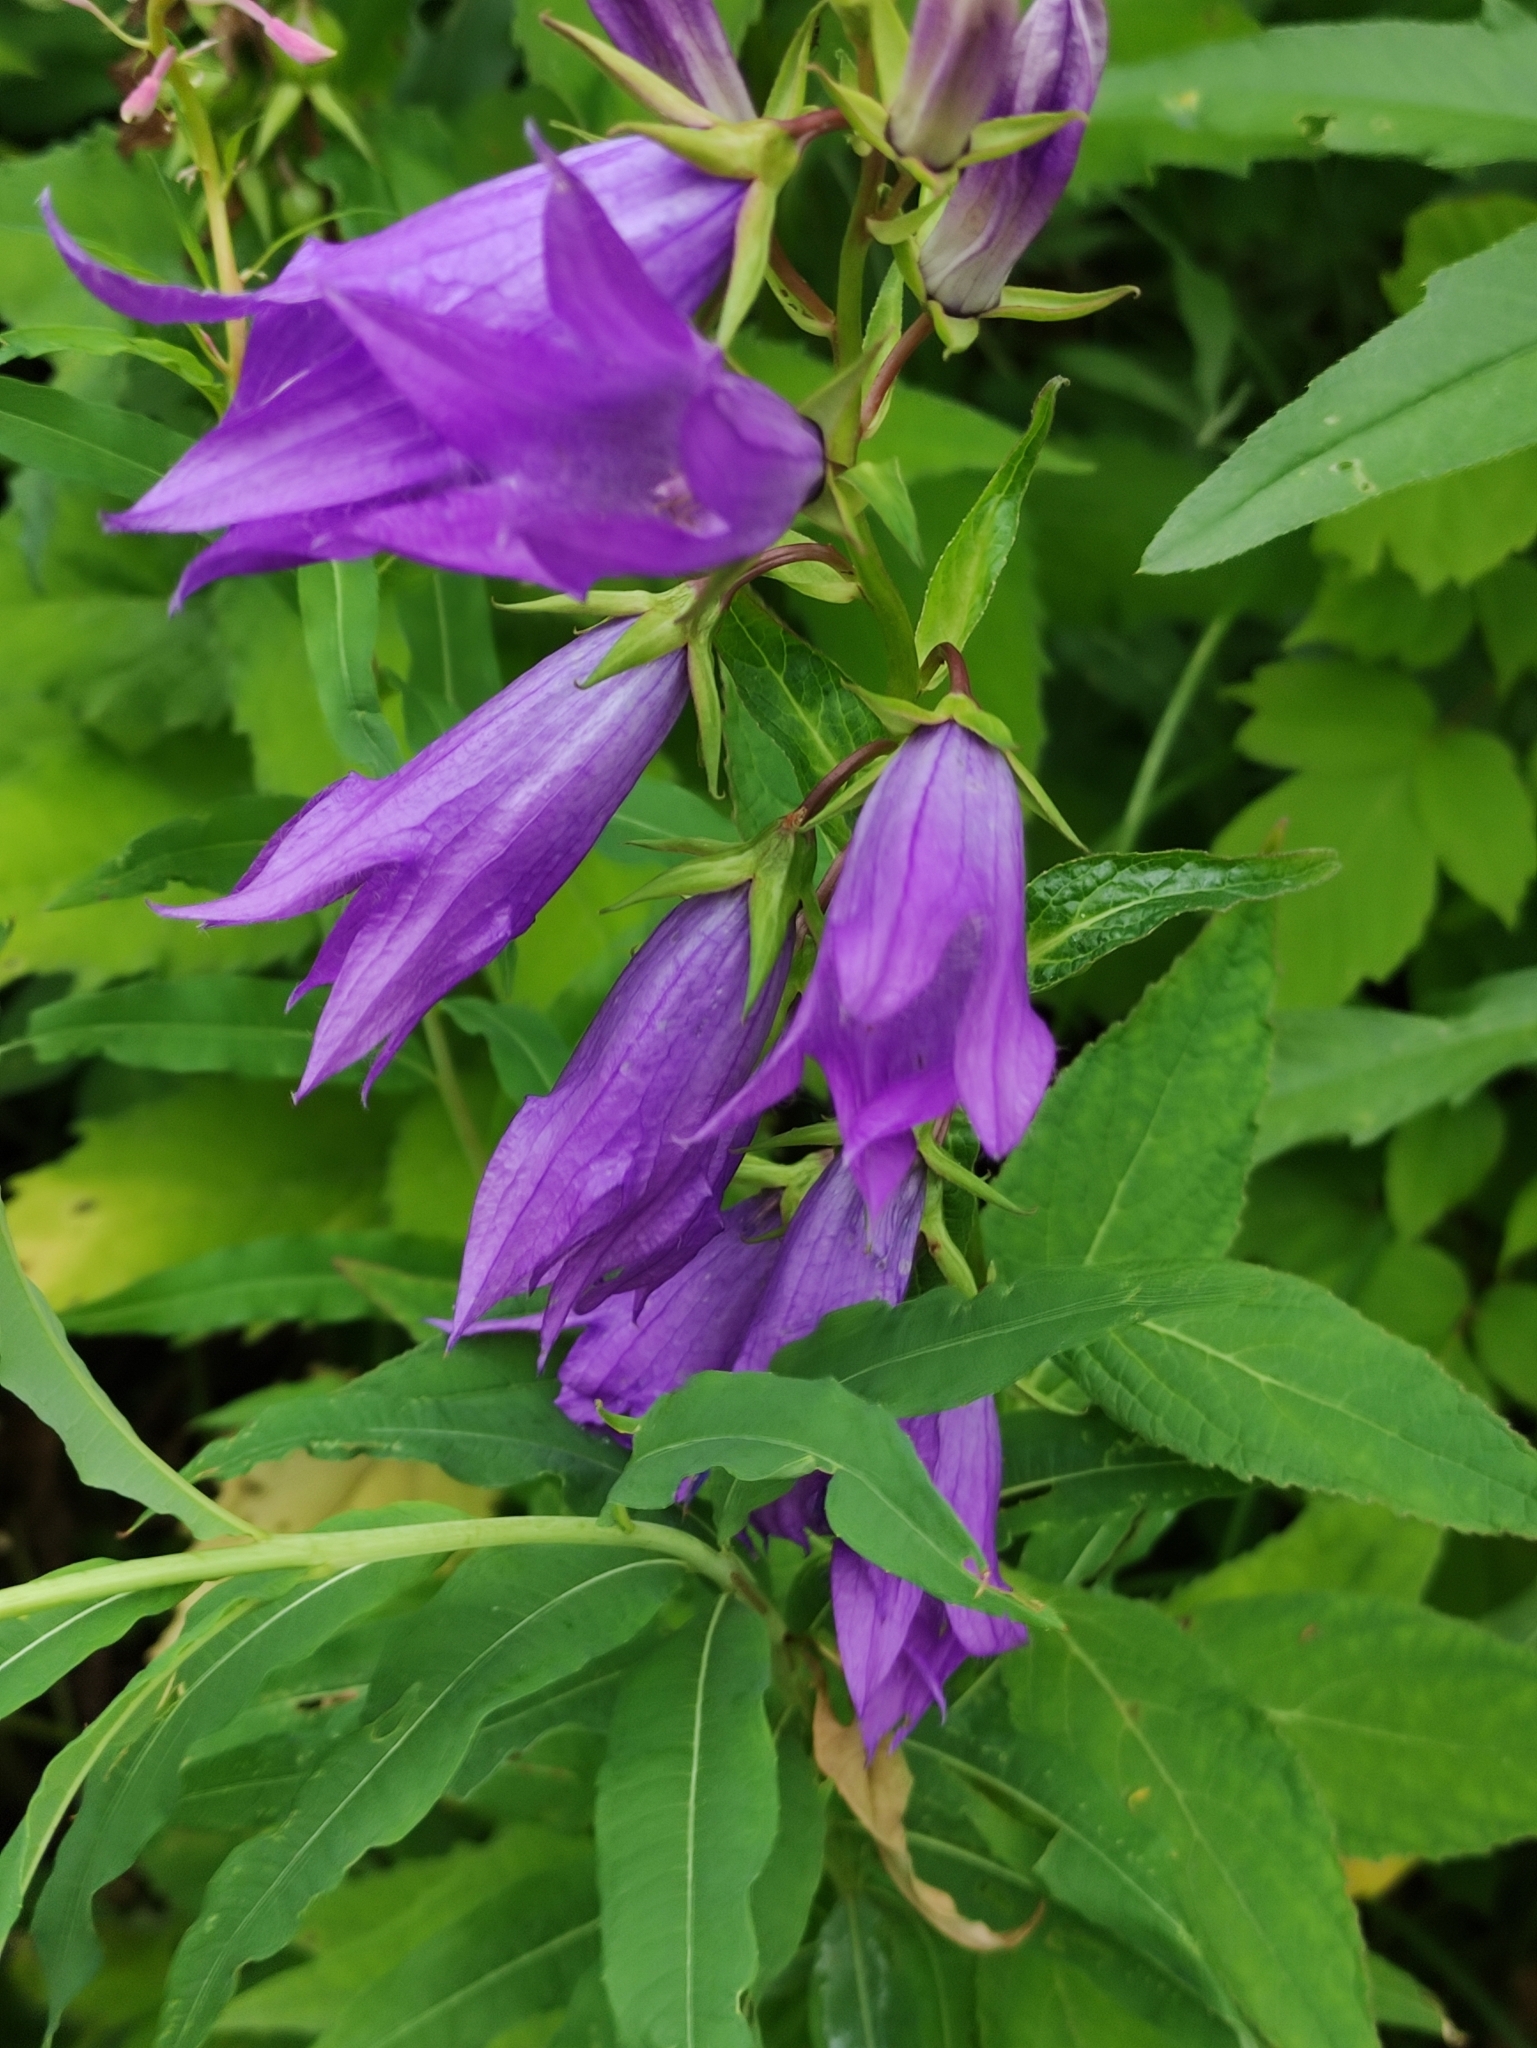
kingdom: Plantae
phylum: Tracheophyta
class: Magnoliopsida
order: Asterales
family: Campanulaceae
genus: Campanula
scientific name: Campanula latifolia
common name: Giant bellflower
